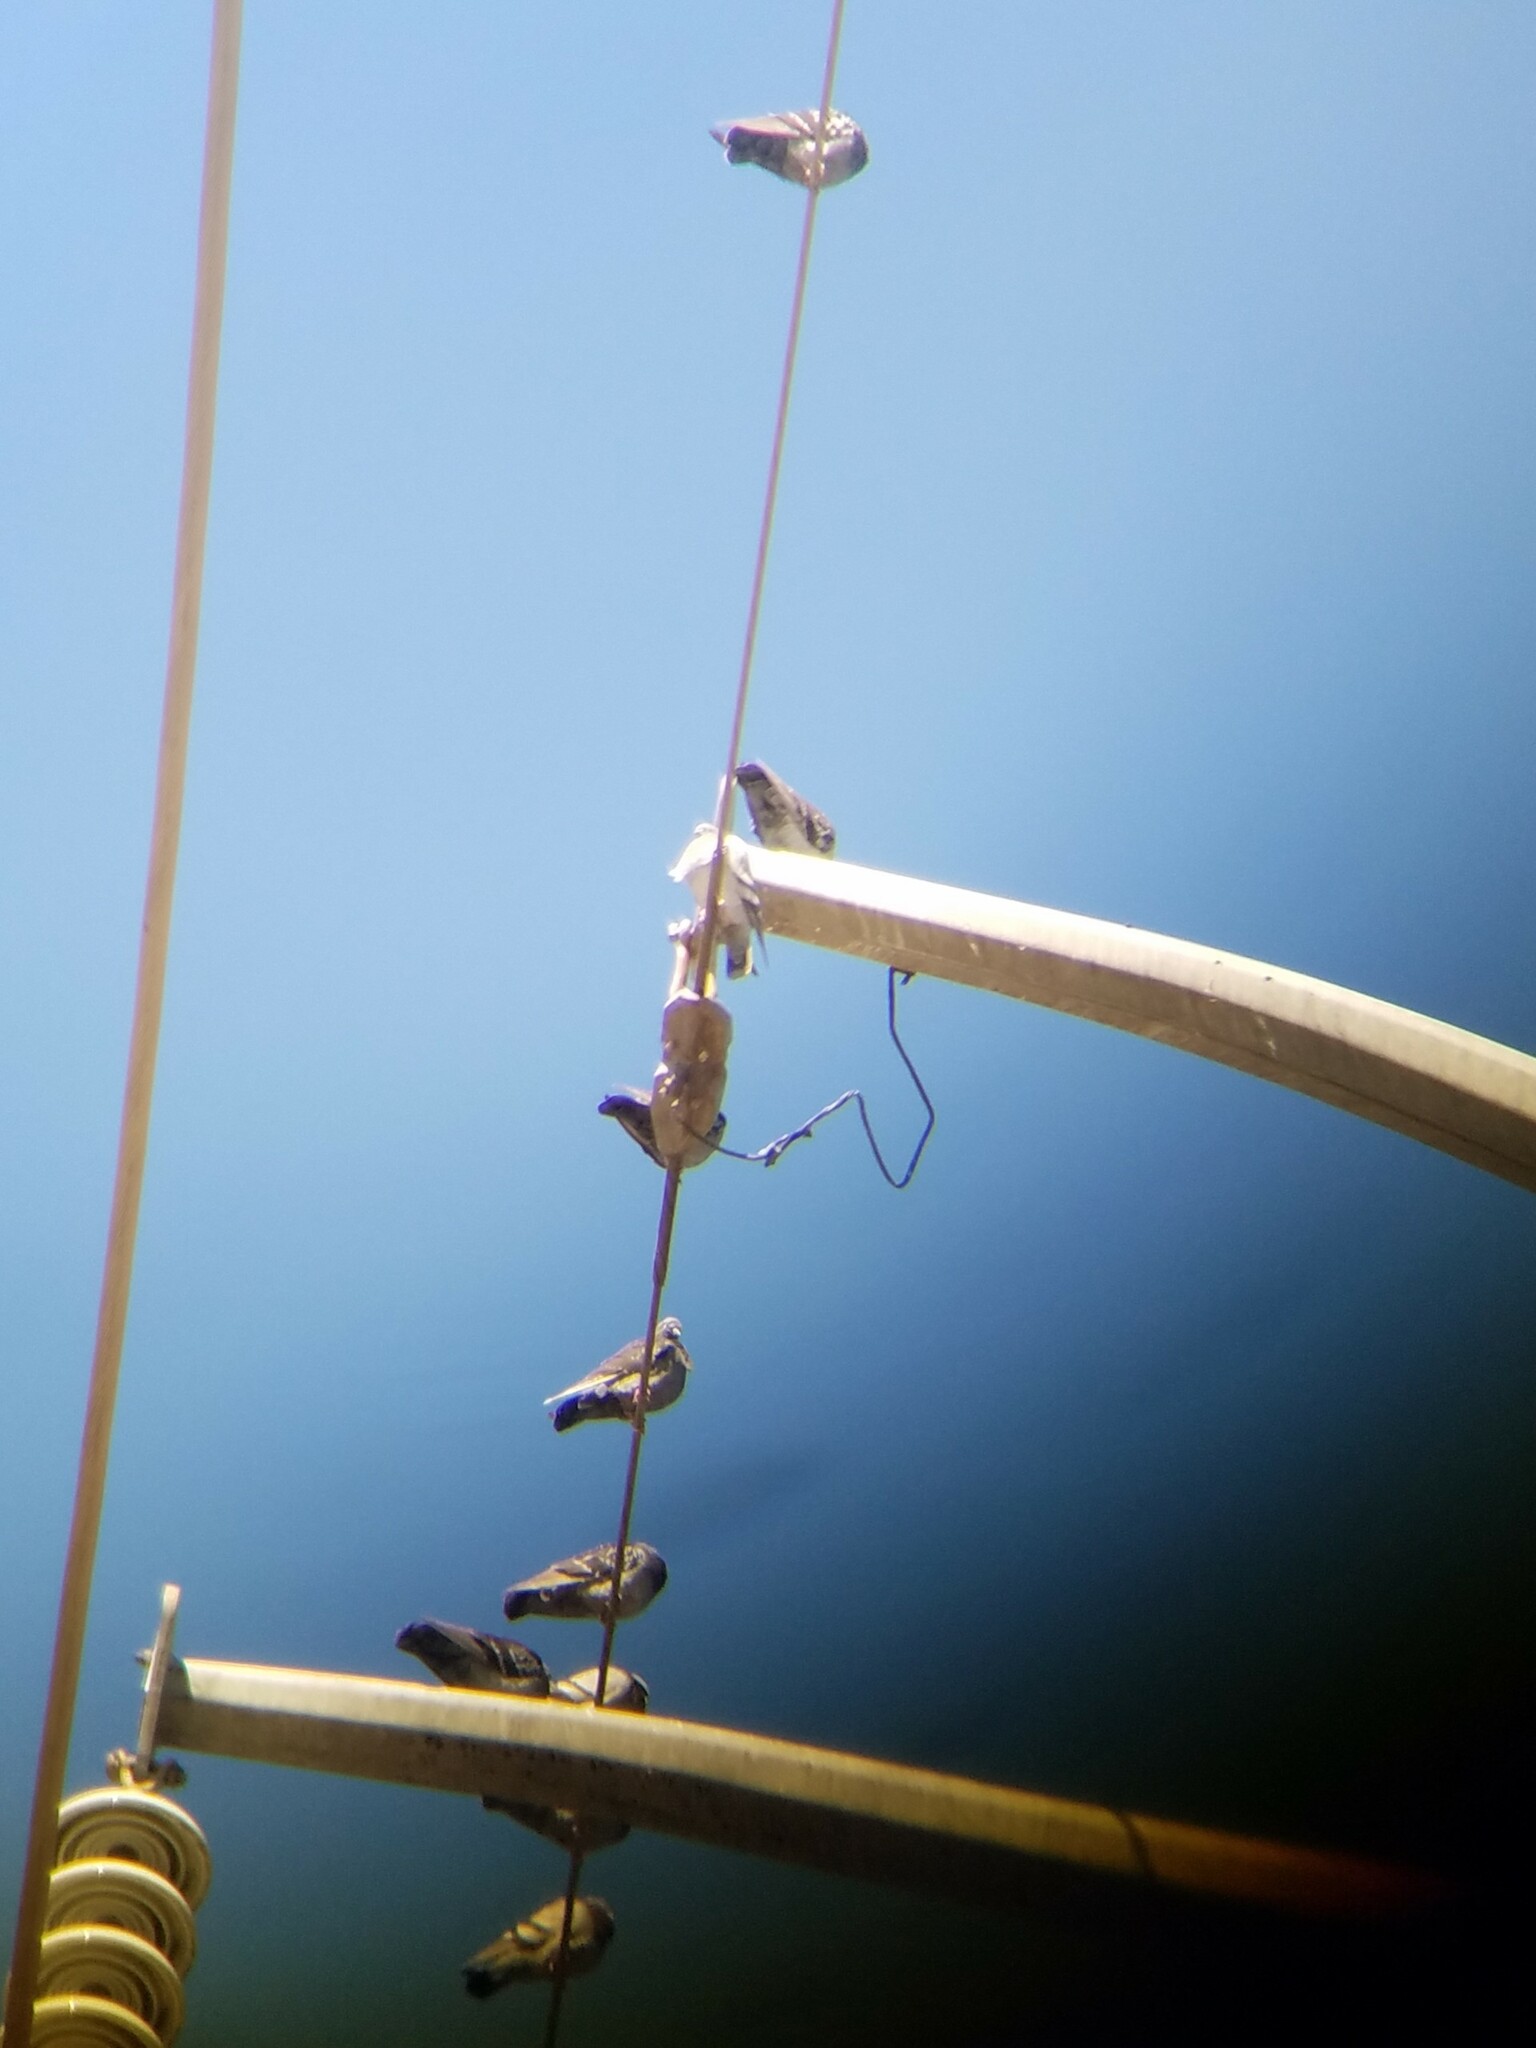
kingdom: Animalia
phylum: Chordata
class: Aves
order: Columbiformes
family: Columbidae
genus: Columba
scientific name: Columba livia
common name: Rock pigeon
